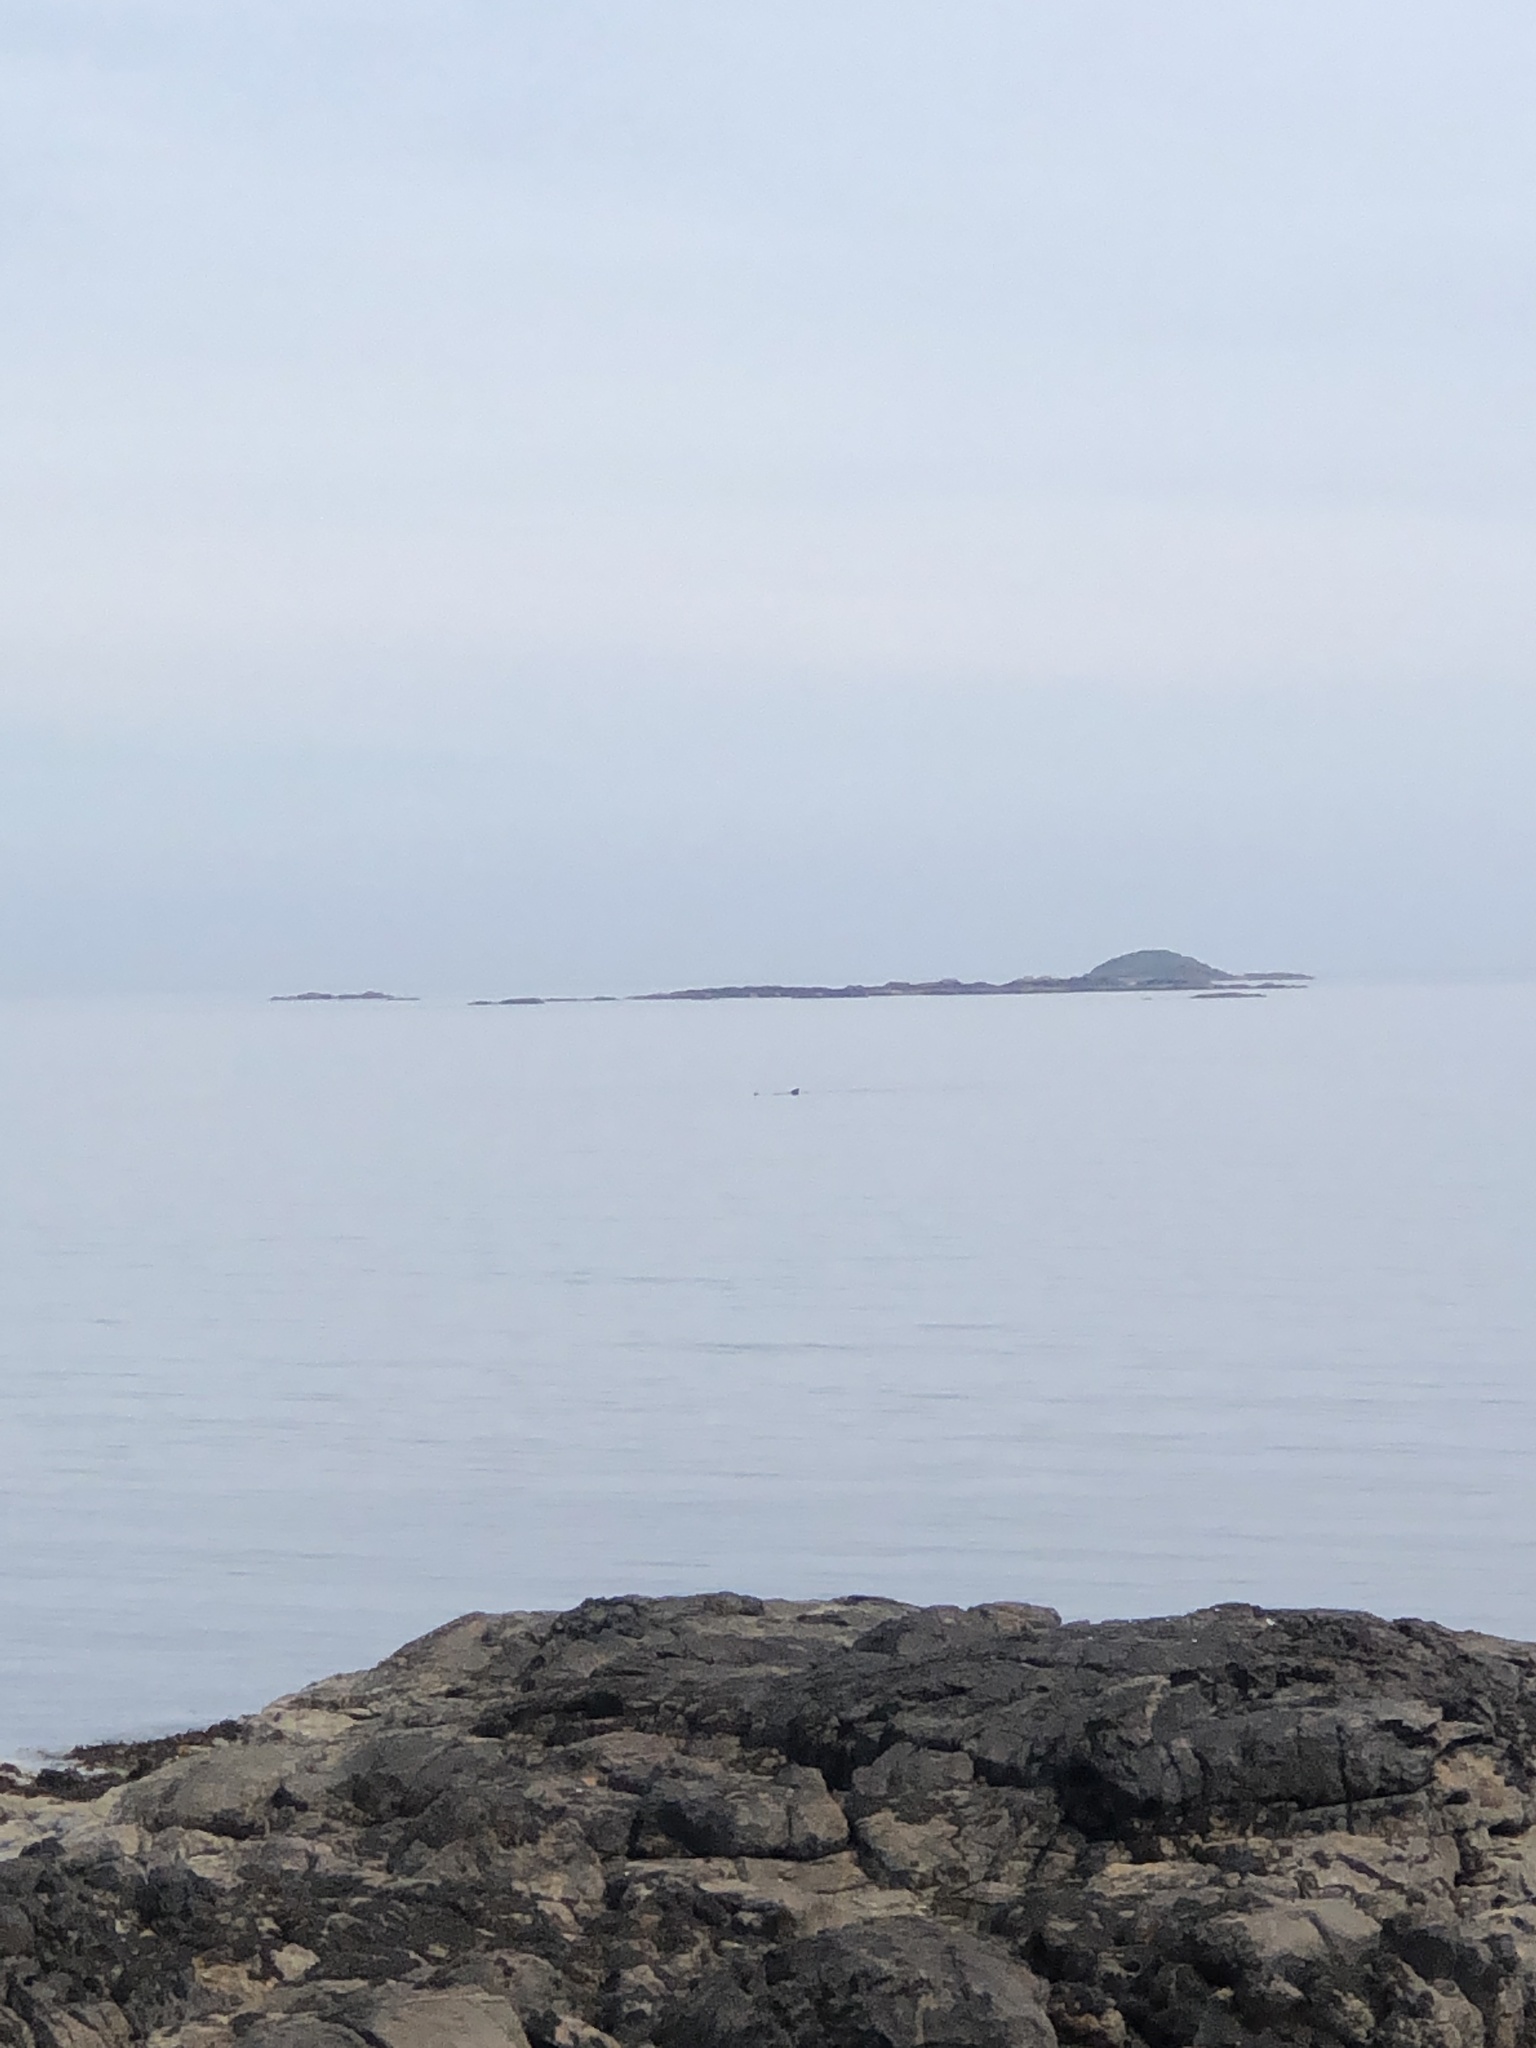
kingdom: Animalia
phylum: Chordata
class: Elasmobranchii
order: Lamniformes
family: Cetorhinidae
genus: Cetorhinus
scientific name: Cetorhinus maximus
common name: Basking shark
